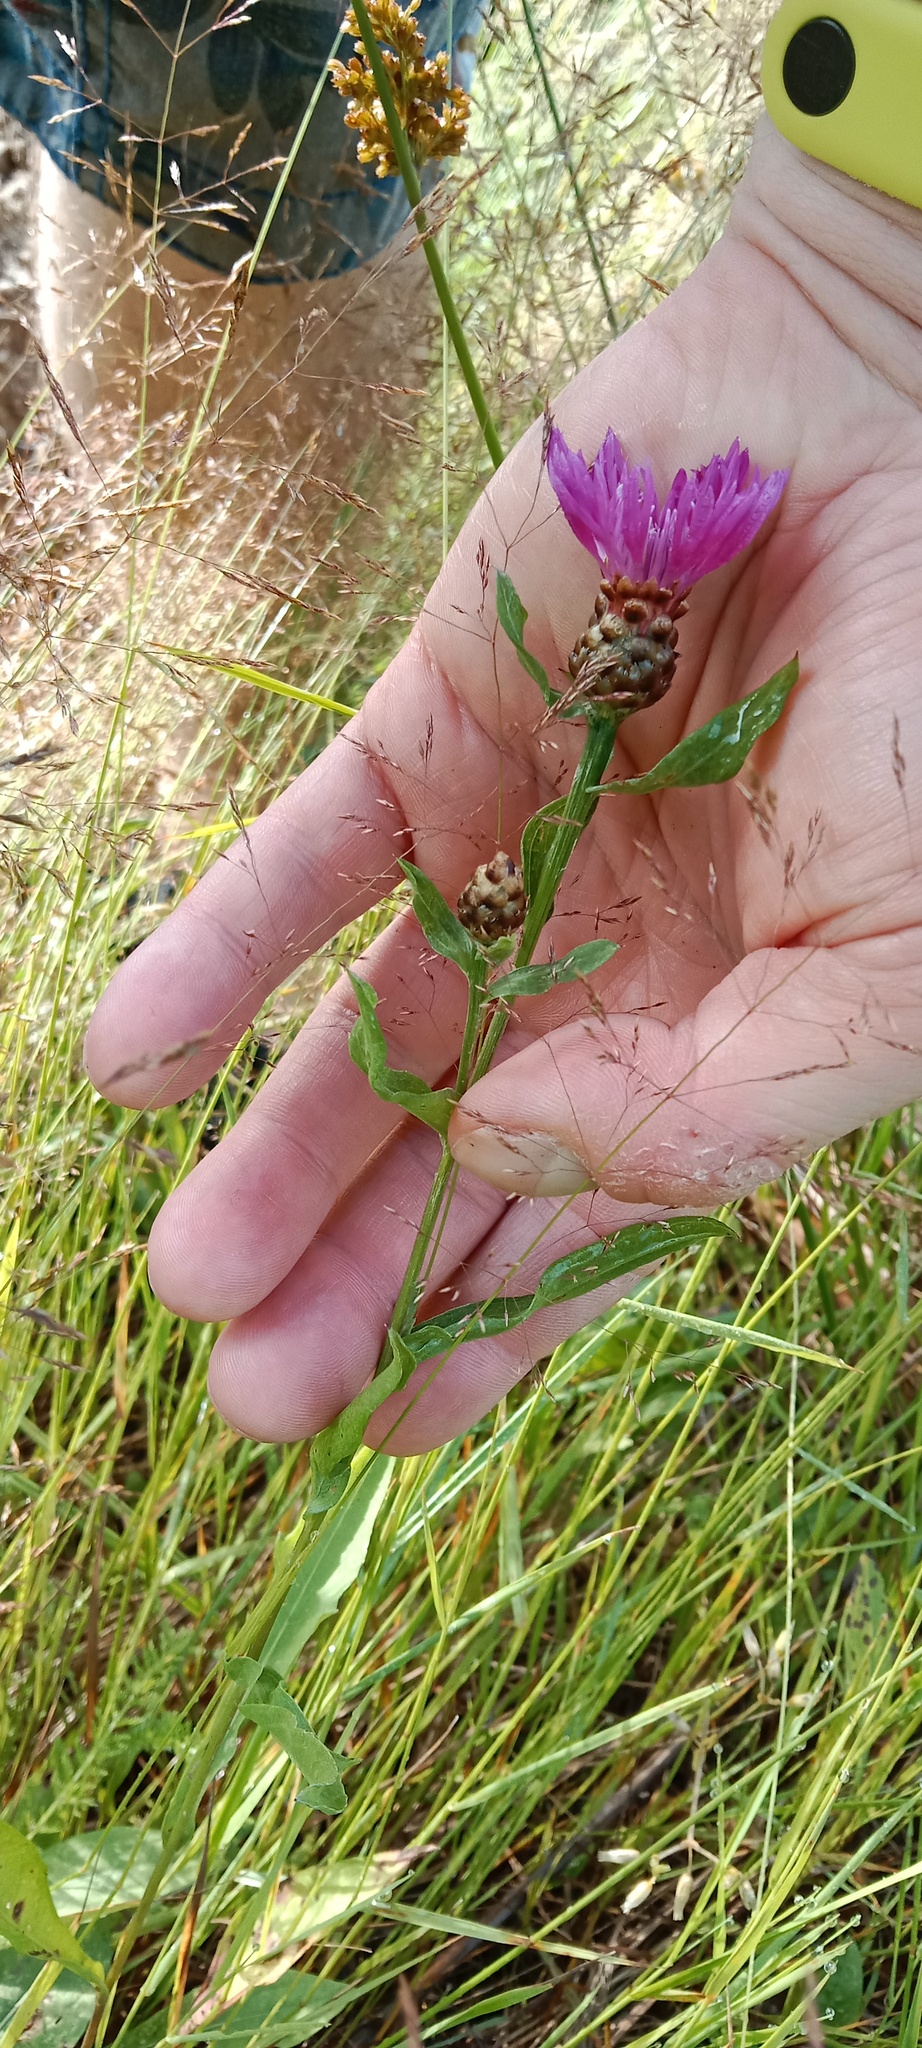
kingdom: Plantae
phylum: Tracheophyta
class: Magnoliopsida
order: Asterales
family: Asteraceae
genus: Centaurea
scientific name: Centaurea jacea
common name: Brown knapweed
